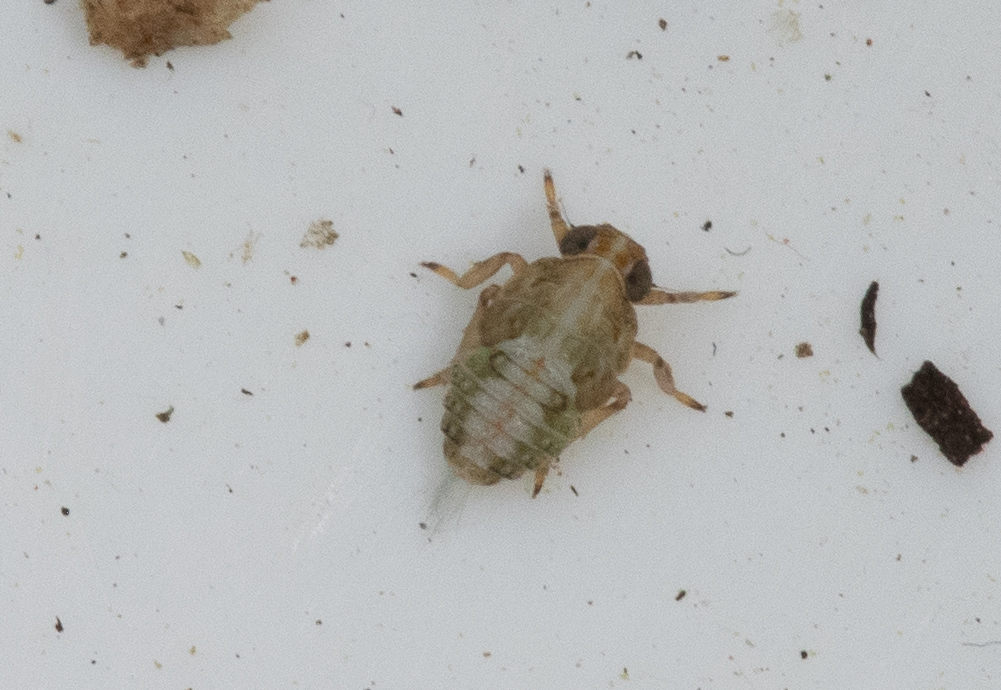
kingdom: Animalia
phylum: Arthropoda
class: Insecta
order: Hemiptera
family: Issidae
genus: Issus
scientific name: Issus
